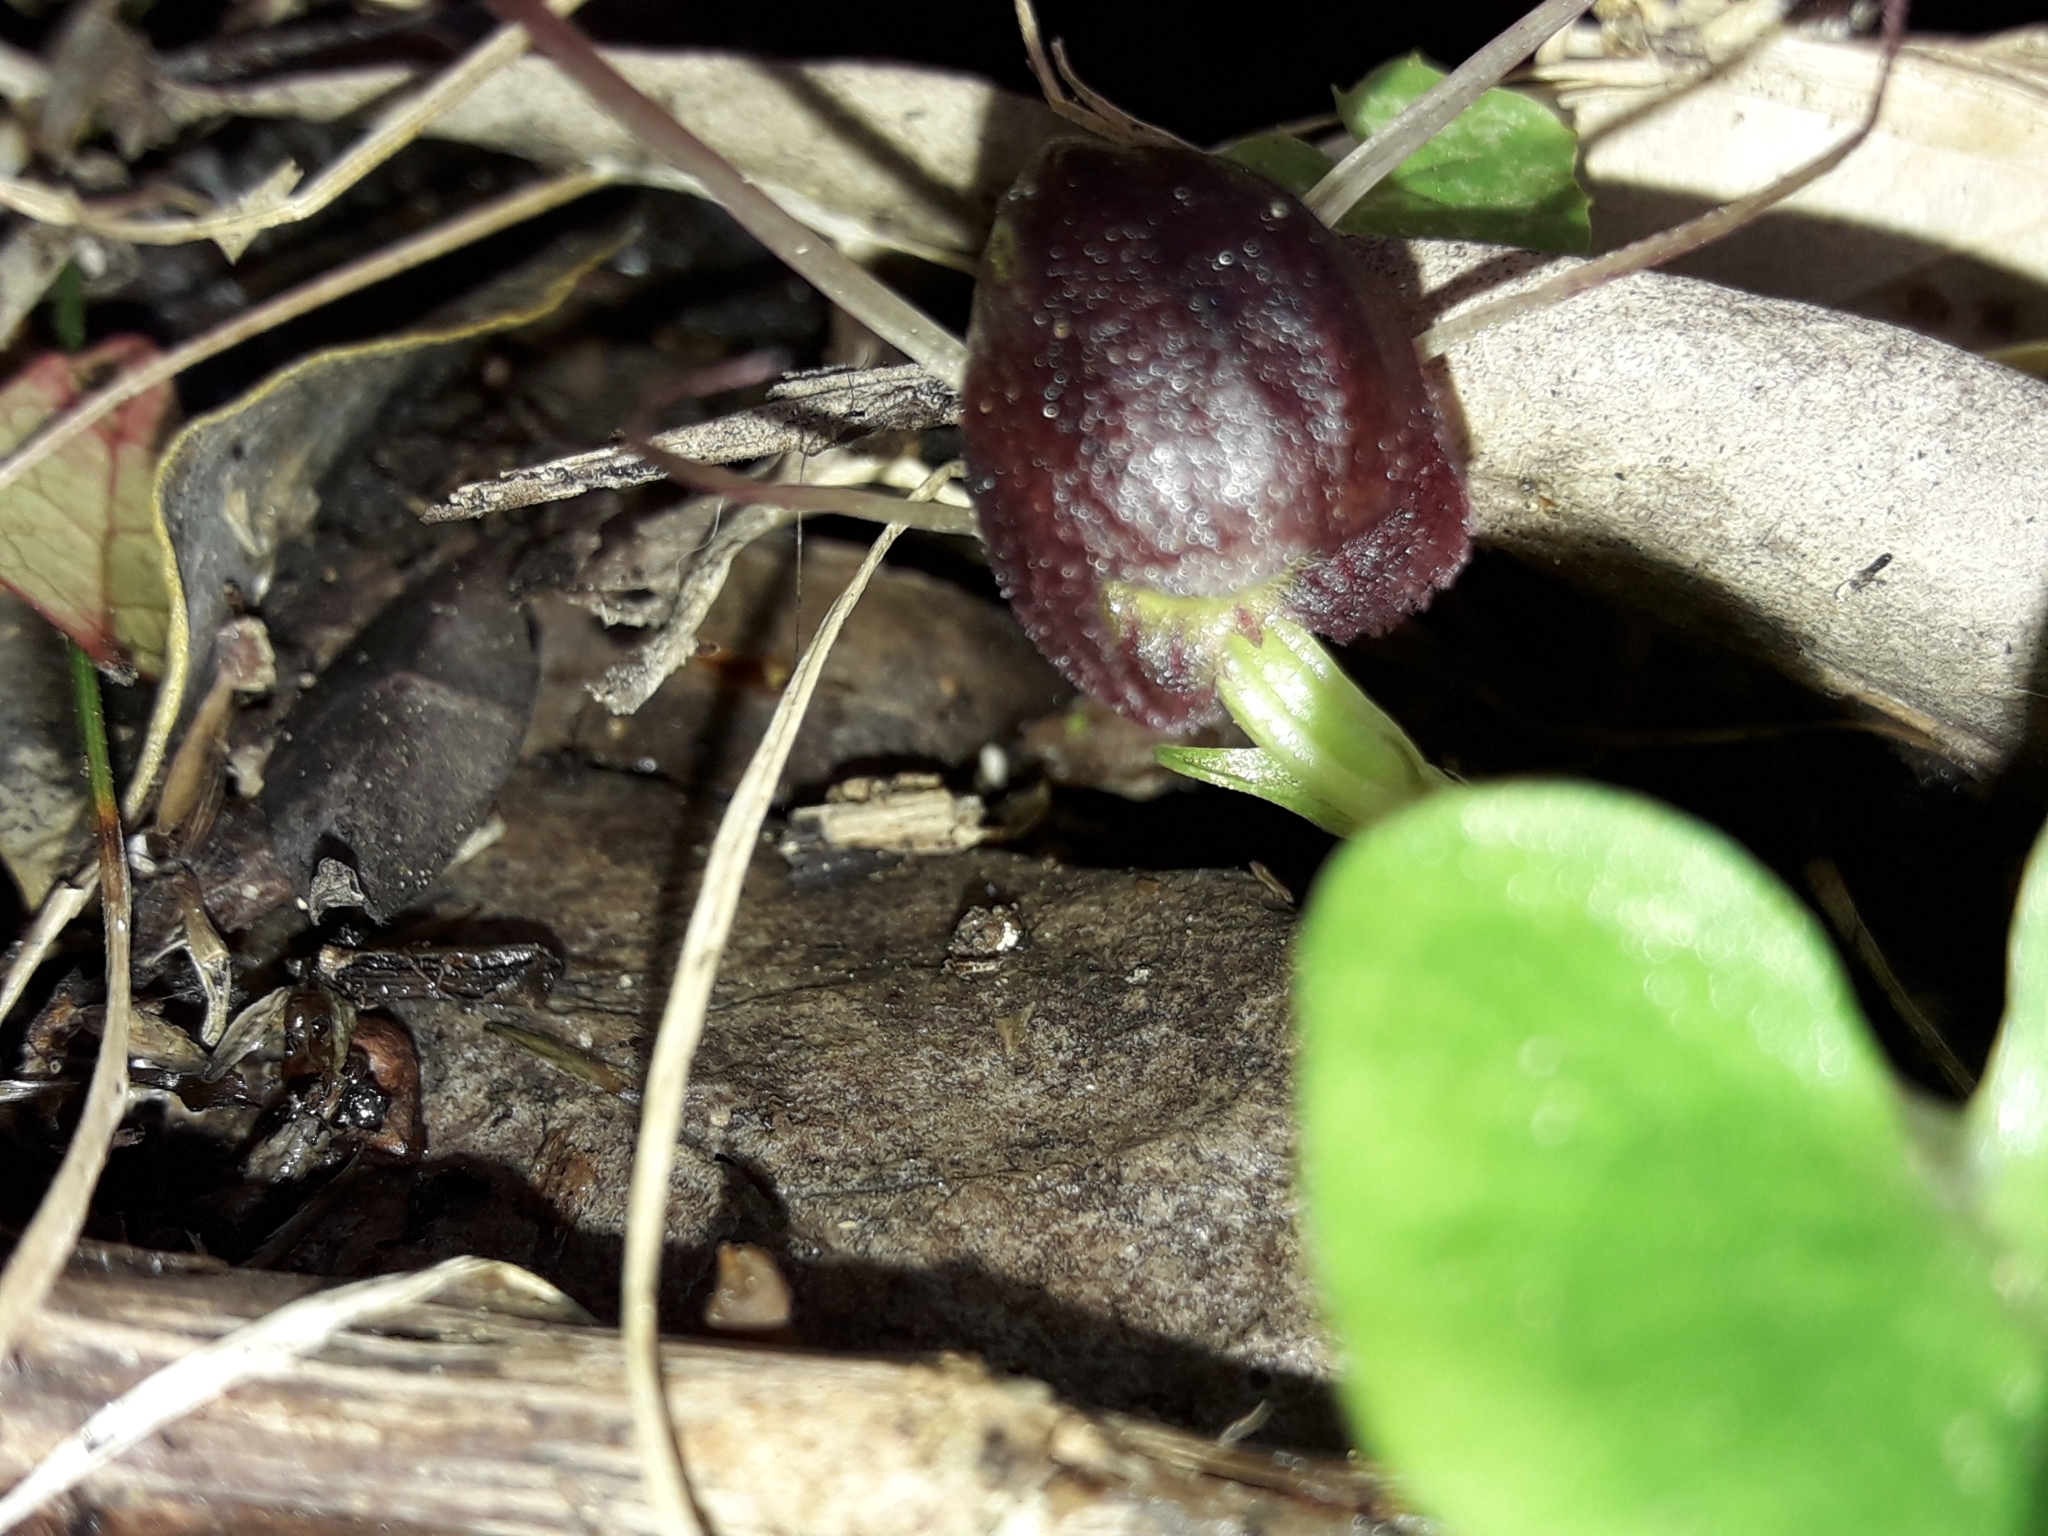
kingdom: Plantae
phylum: Tracheophyta
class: Liliopsida
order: Asparagales
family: Orchidaceae
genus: Corybas
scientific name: Corybas confusus
